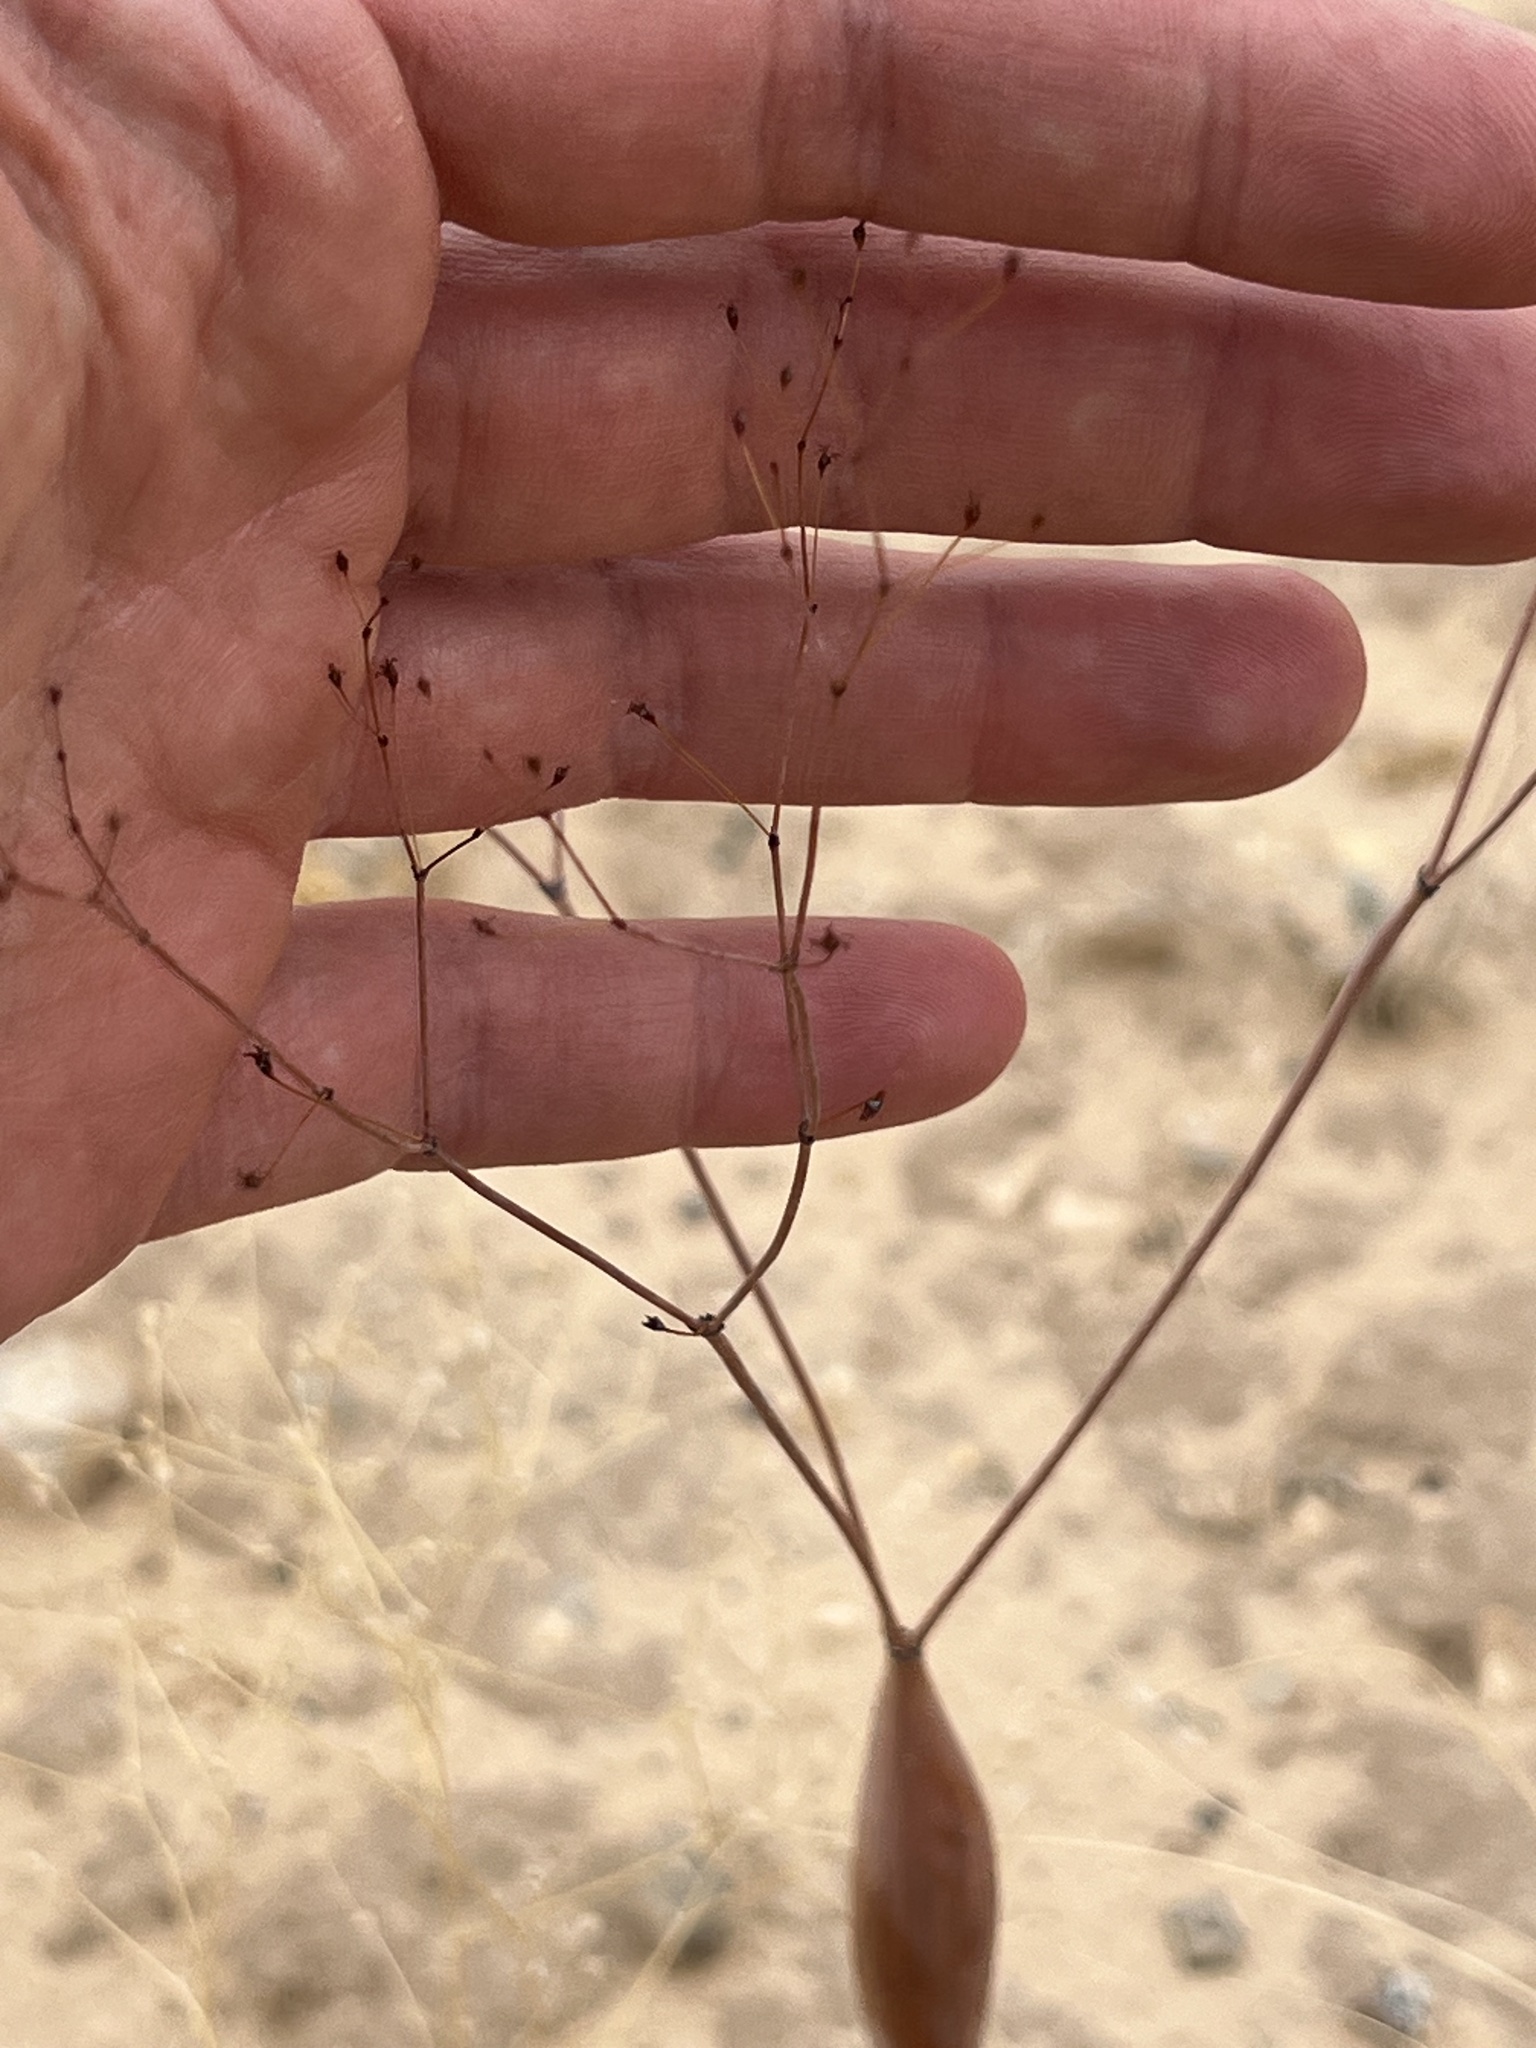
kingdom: Plantae
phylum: Tracheophyta
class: Magnoliopsida
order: Caryophyllales
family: Polygonaceae
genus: Eriogonum
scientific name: Eriogonum inflatum
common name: Desert trumpet
